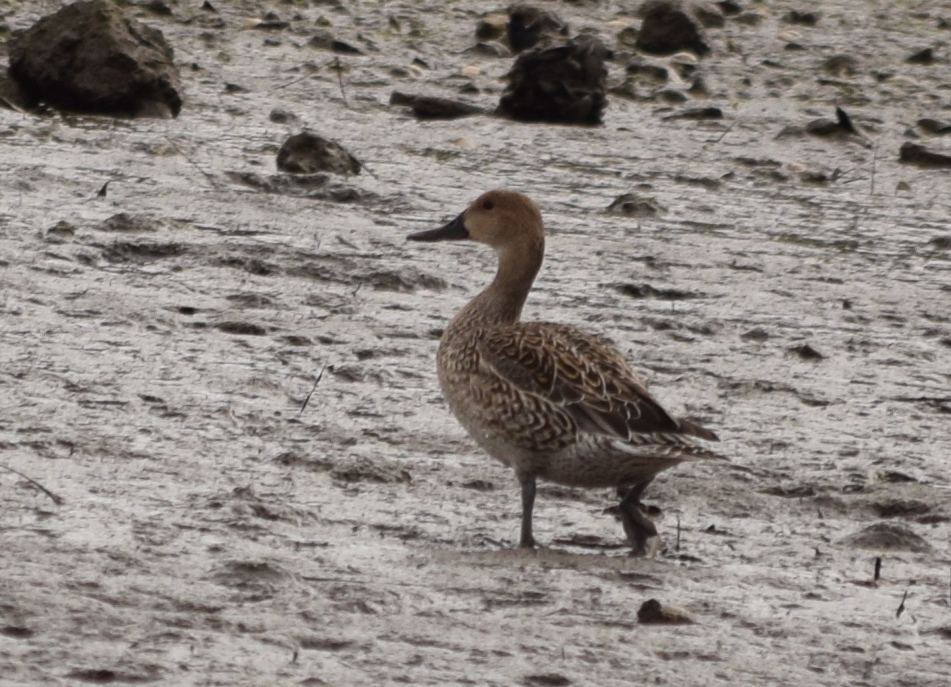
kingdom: Animalia
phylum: Chordata
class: Aves
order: Anseriformes
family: Anatidae
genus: Anas
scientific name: Anas acuta
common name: Northern pintail
